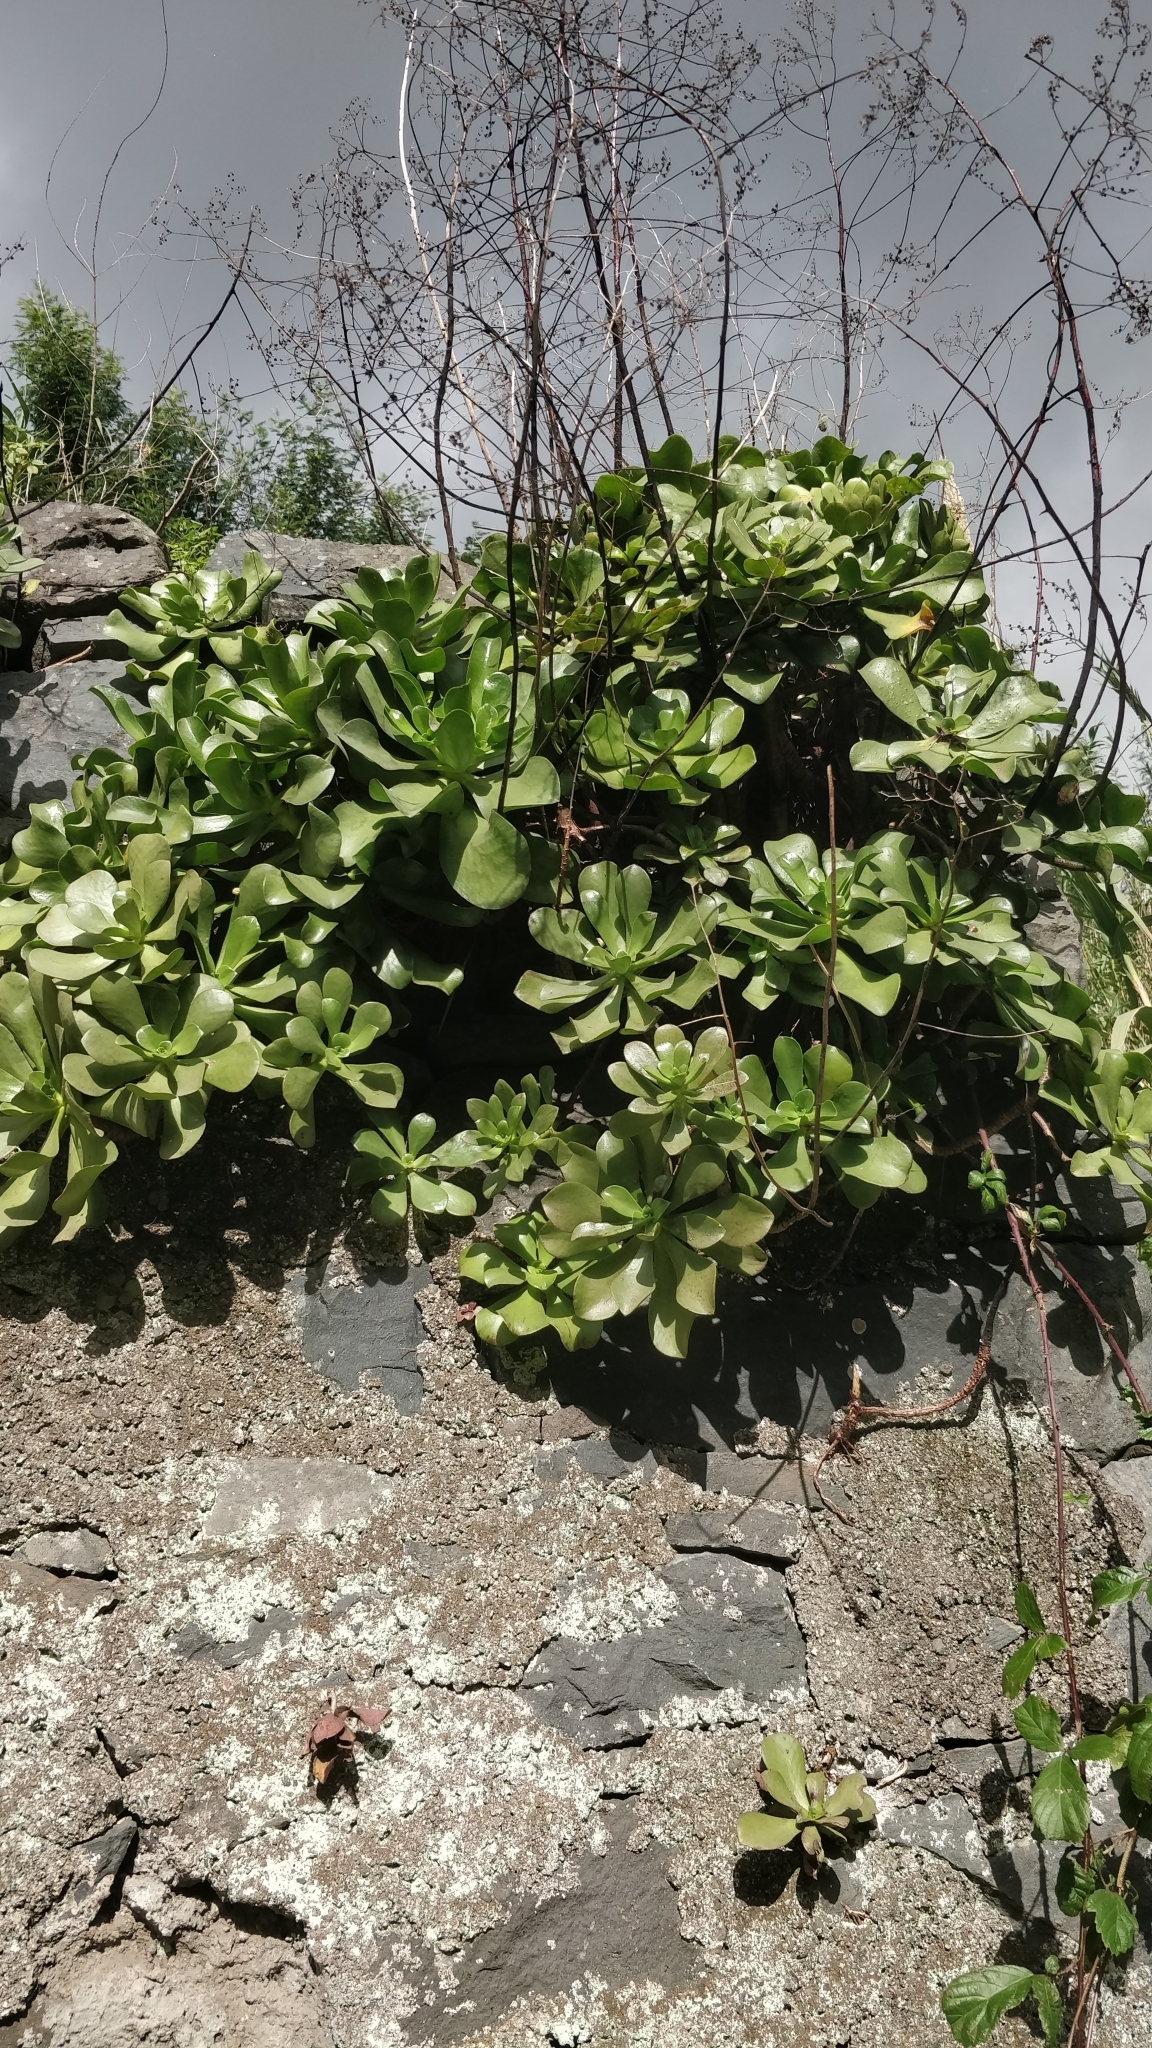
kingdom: Plantae
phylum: Tracheophyta
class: Magnoliopsida
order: Saxifragales
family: Crassulaceae
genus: Aeonium
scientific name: Aeonium glutinosum
